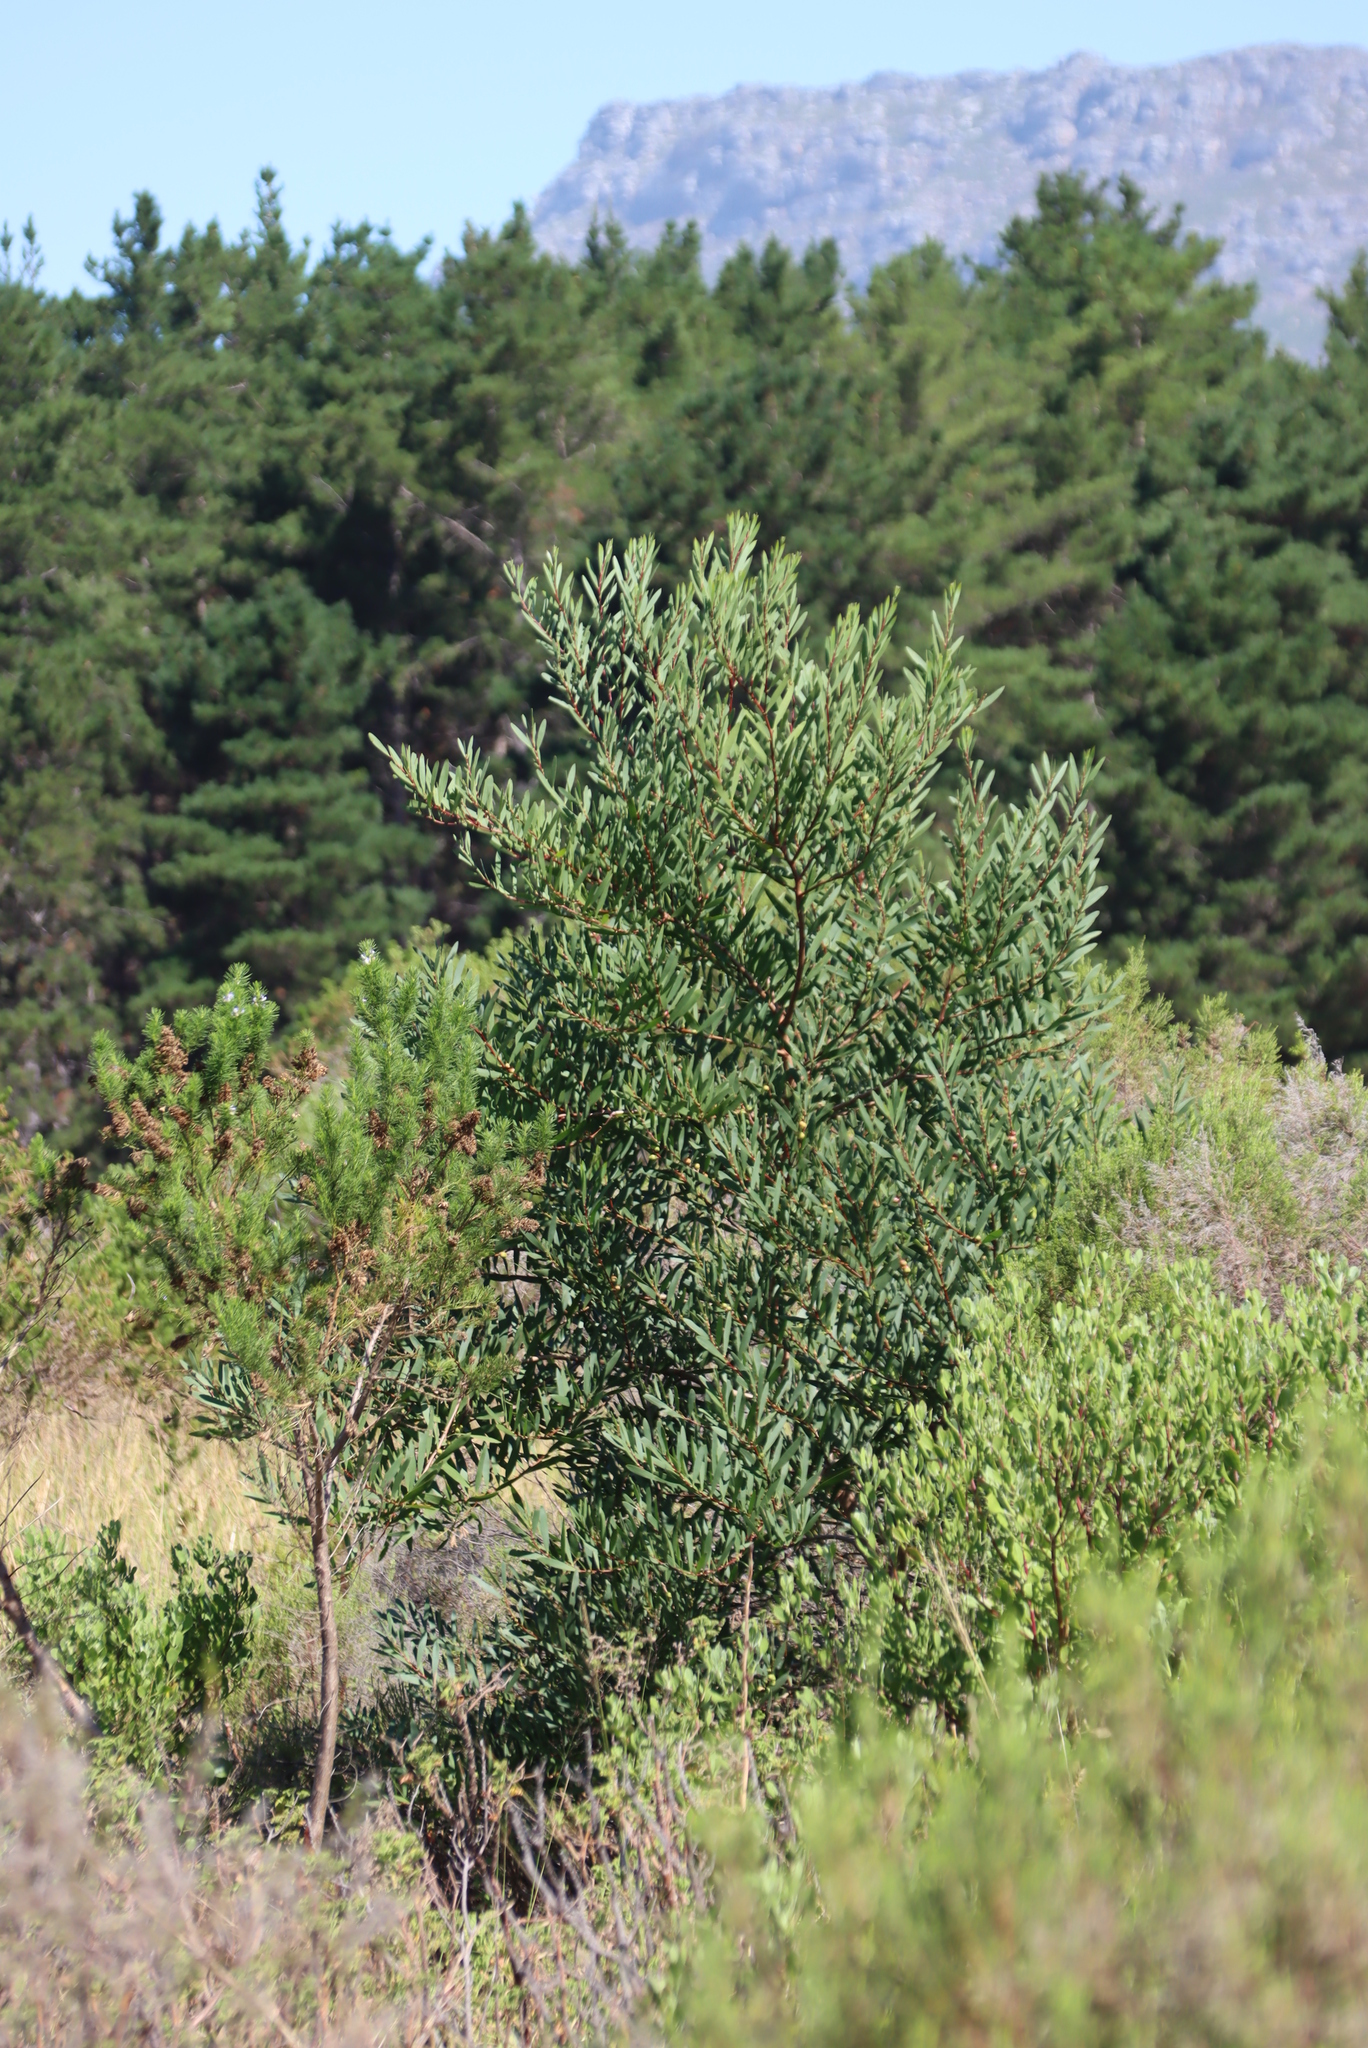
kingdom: Plantae
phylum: Tracheophyta
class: Magnoliopsida
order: Fabales
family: Fabaceae
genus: Acacia
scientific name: Acacia longifolia
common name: Sydney golden wattle
